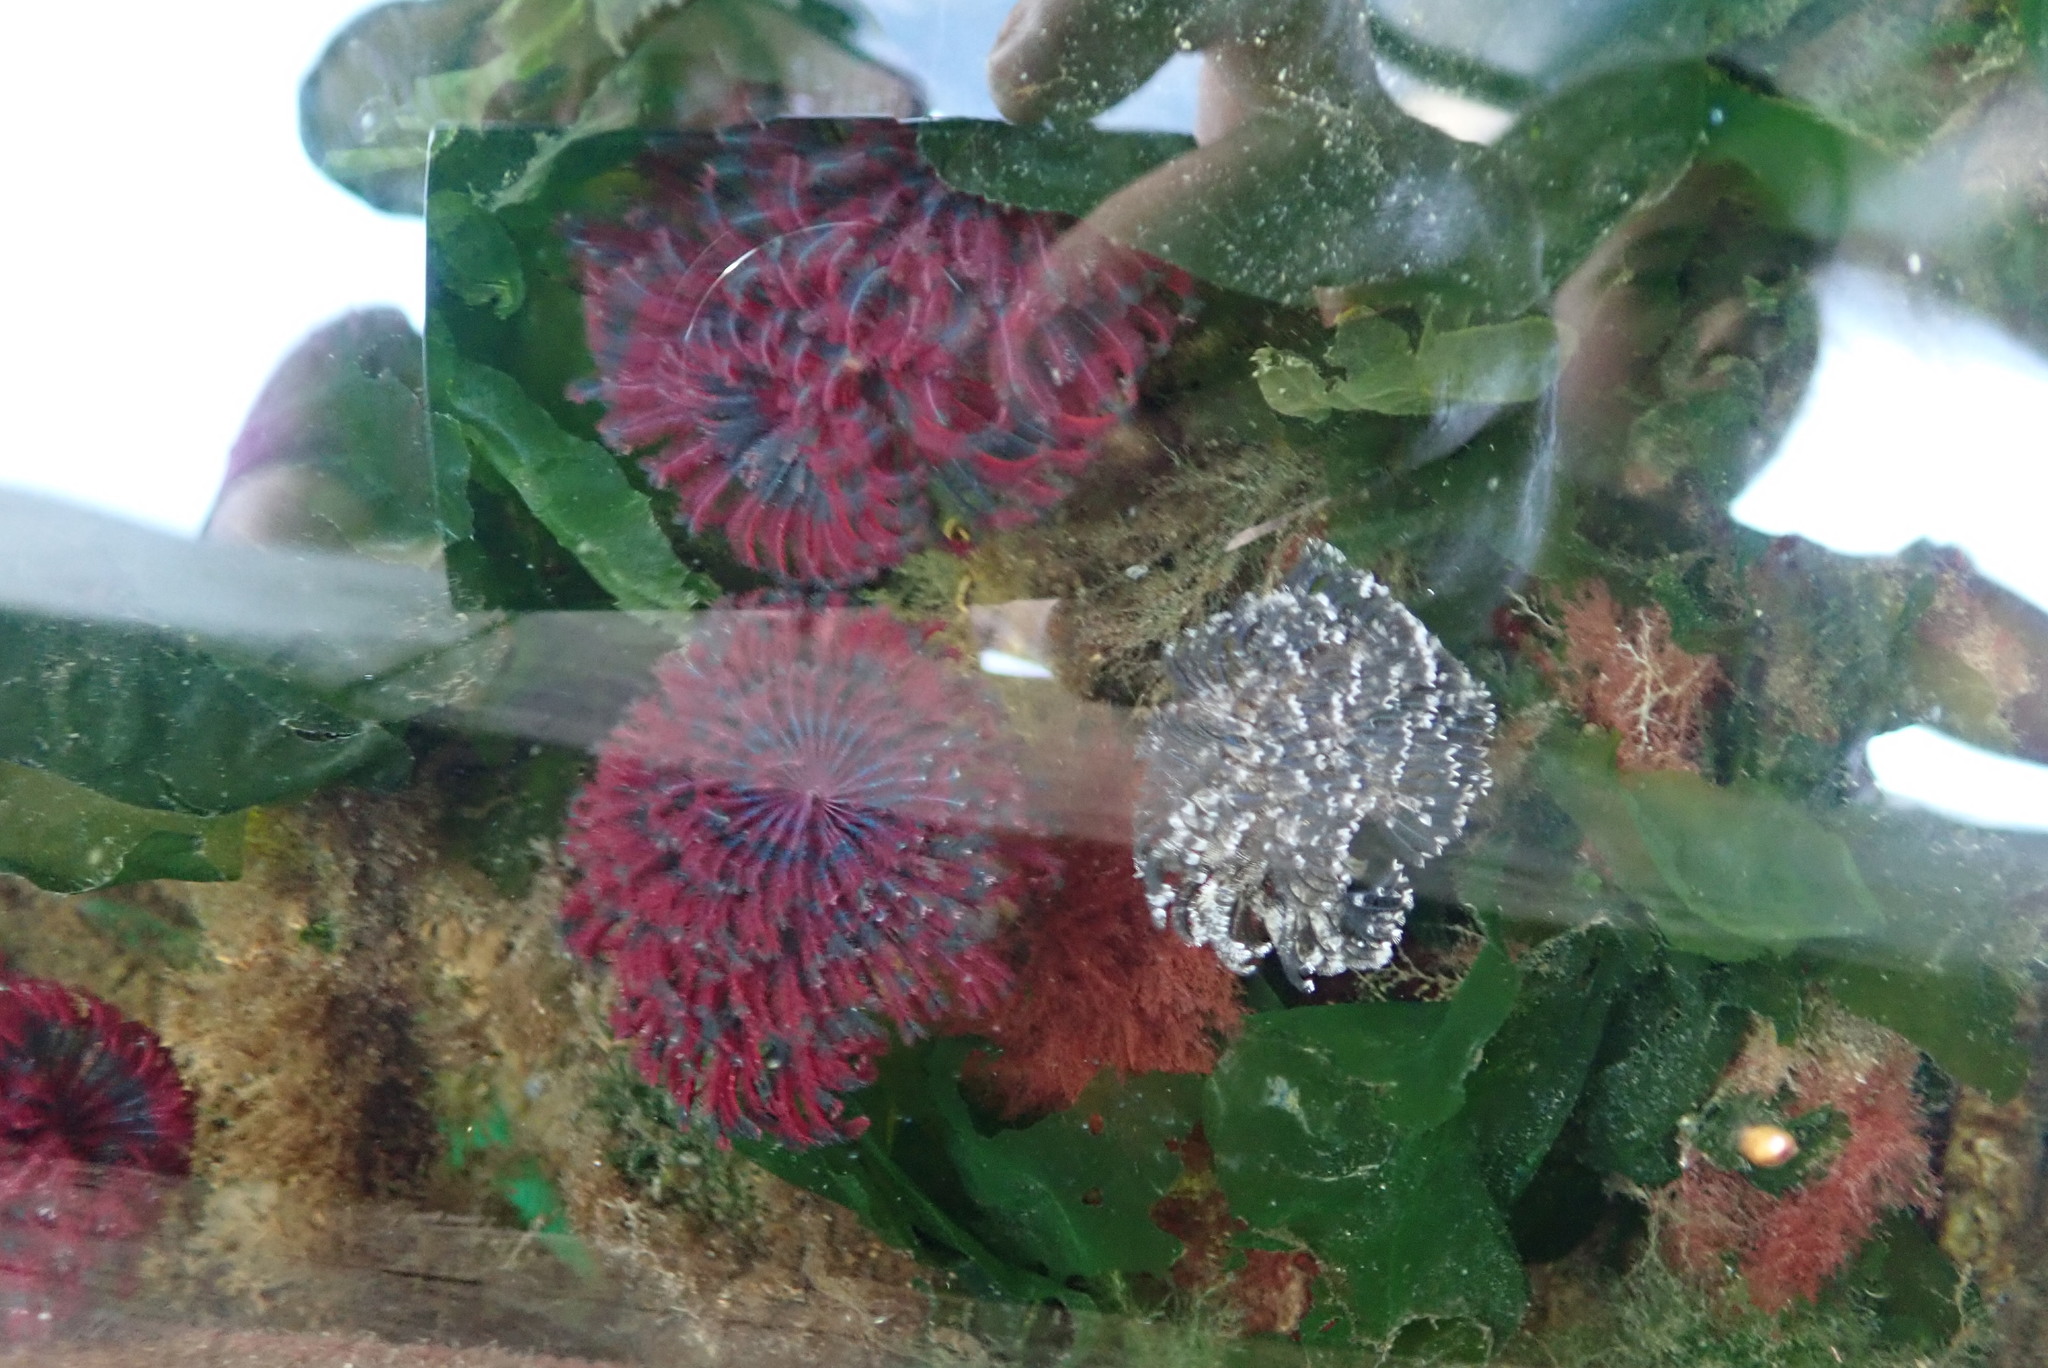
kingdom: Animalia
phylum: Annelida
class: Polychaeta
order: Sabellida
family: Sabellidae
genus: Eudistylia
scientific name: Eudistylia vancouveri
